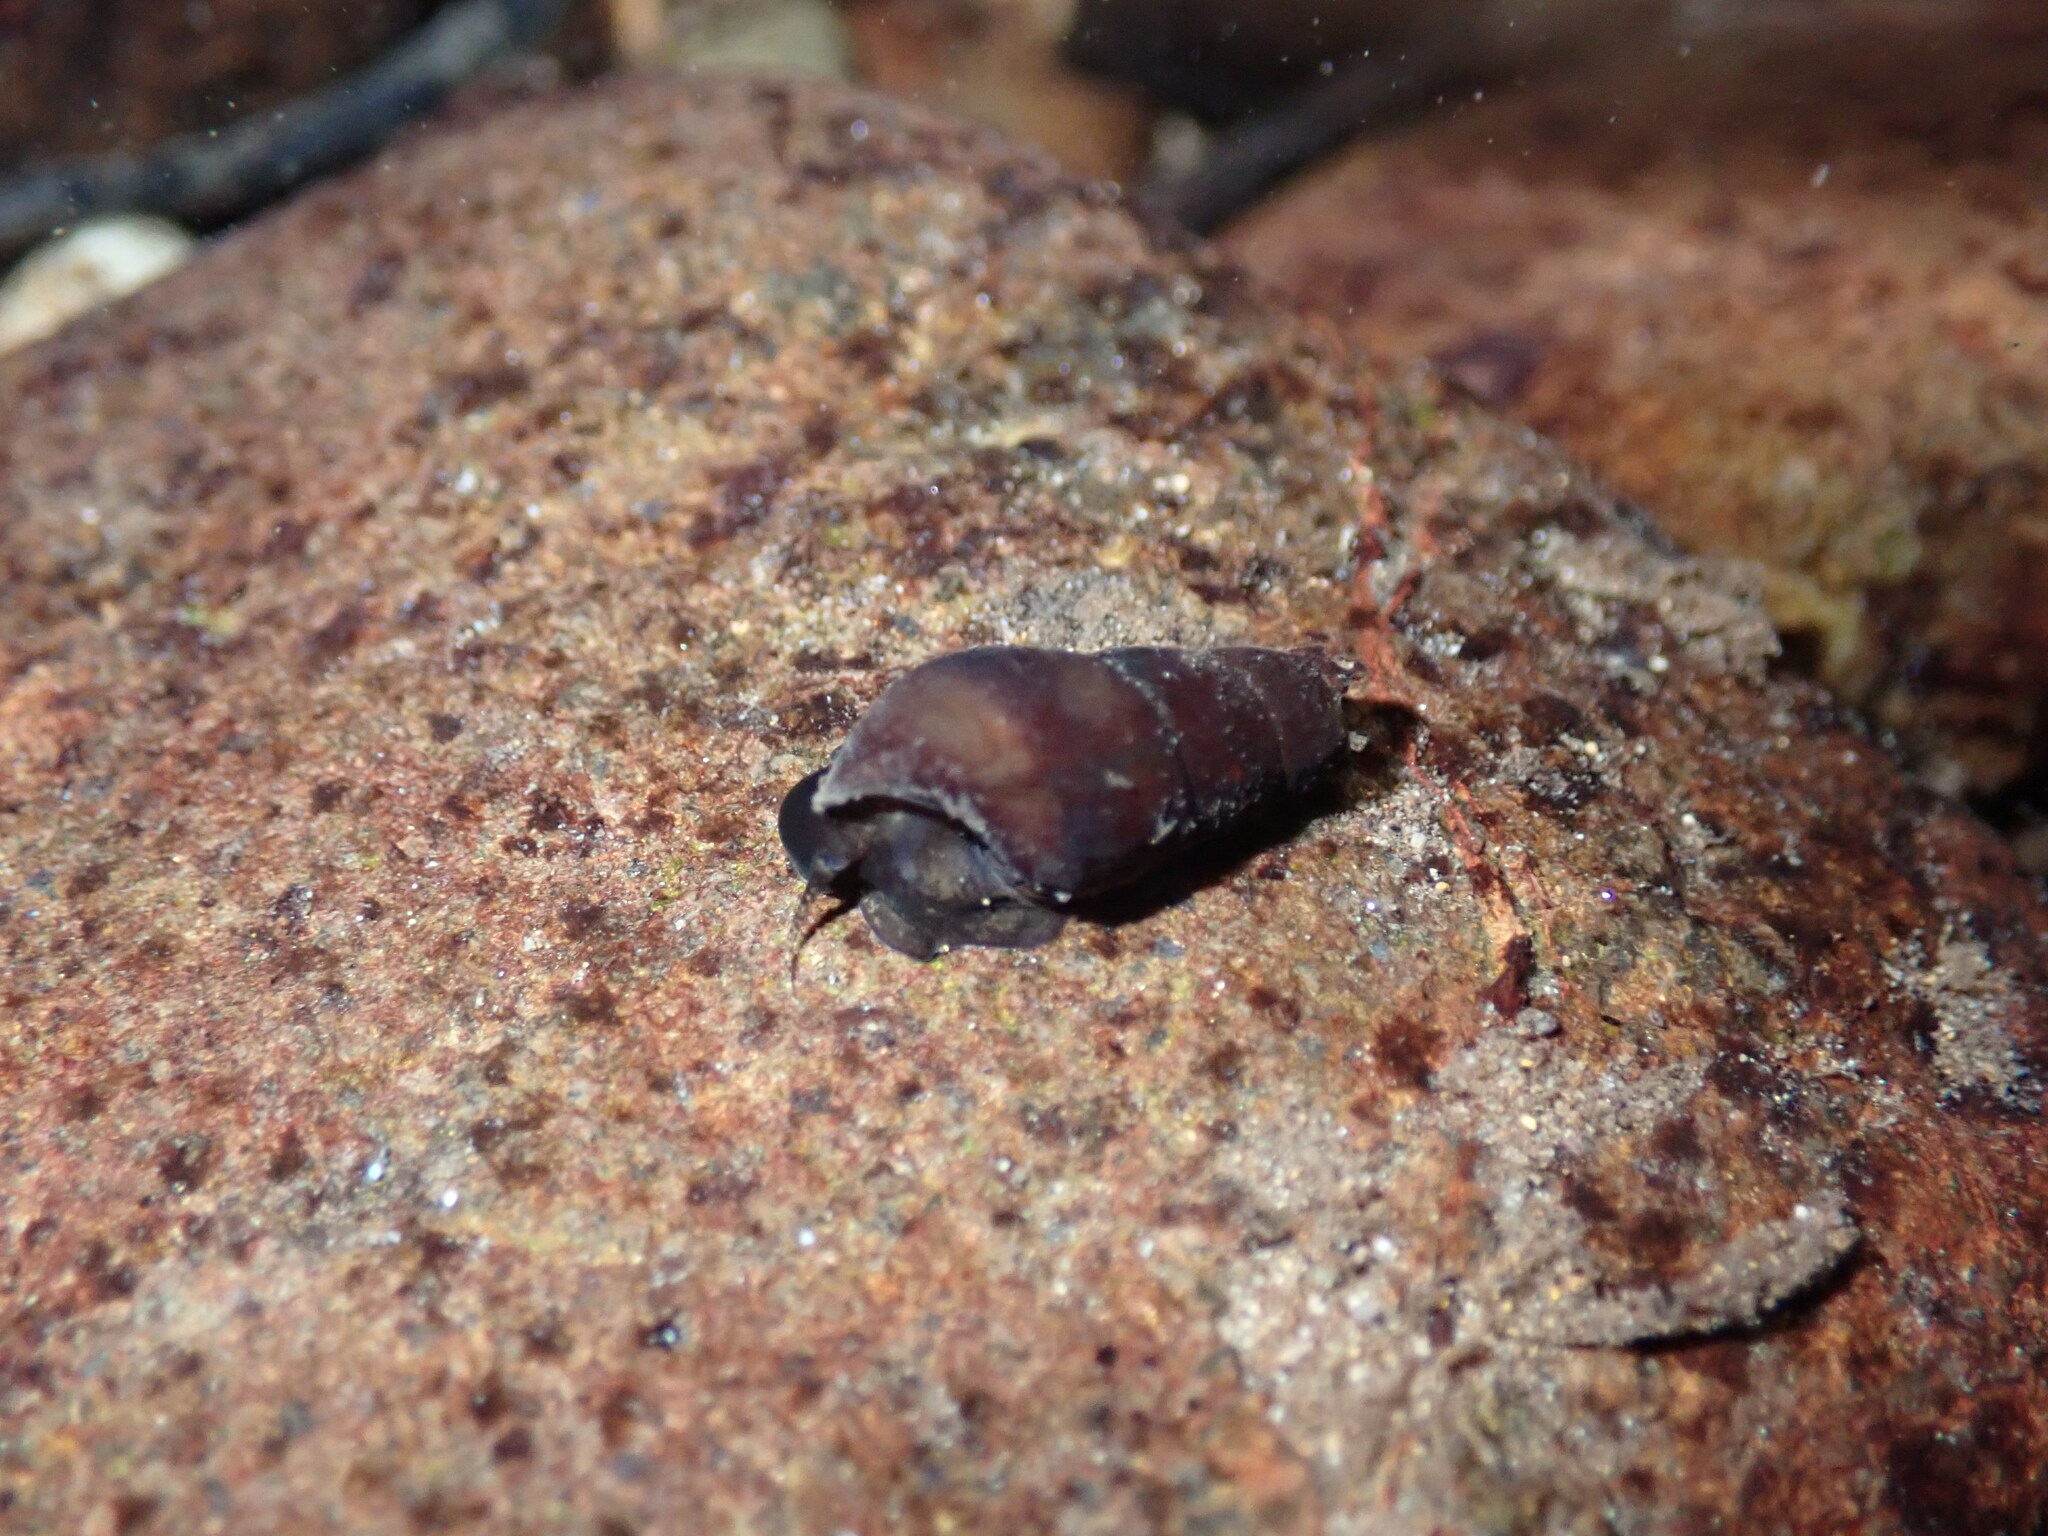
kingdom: Animalia
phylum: Mollusca
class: Gastropoda
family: Semisulcospiridae
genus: Juga
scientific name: Juga plicifera
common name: Pleated juga
